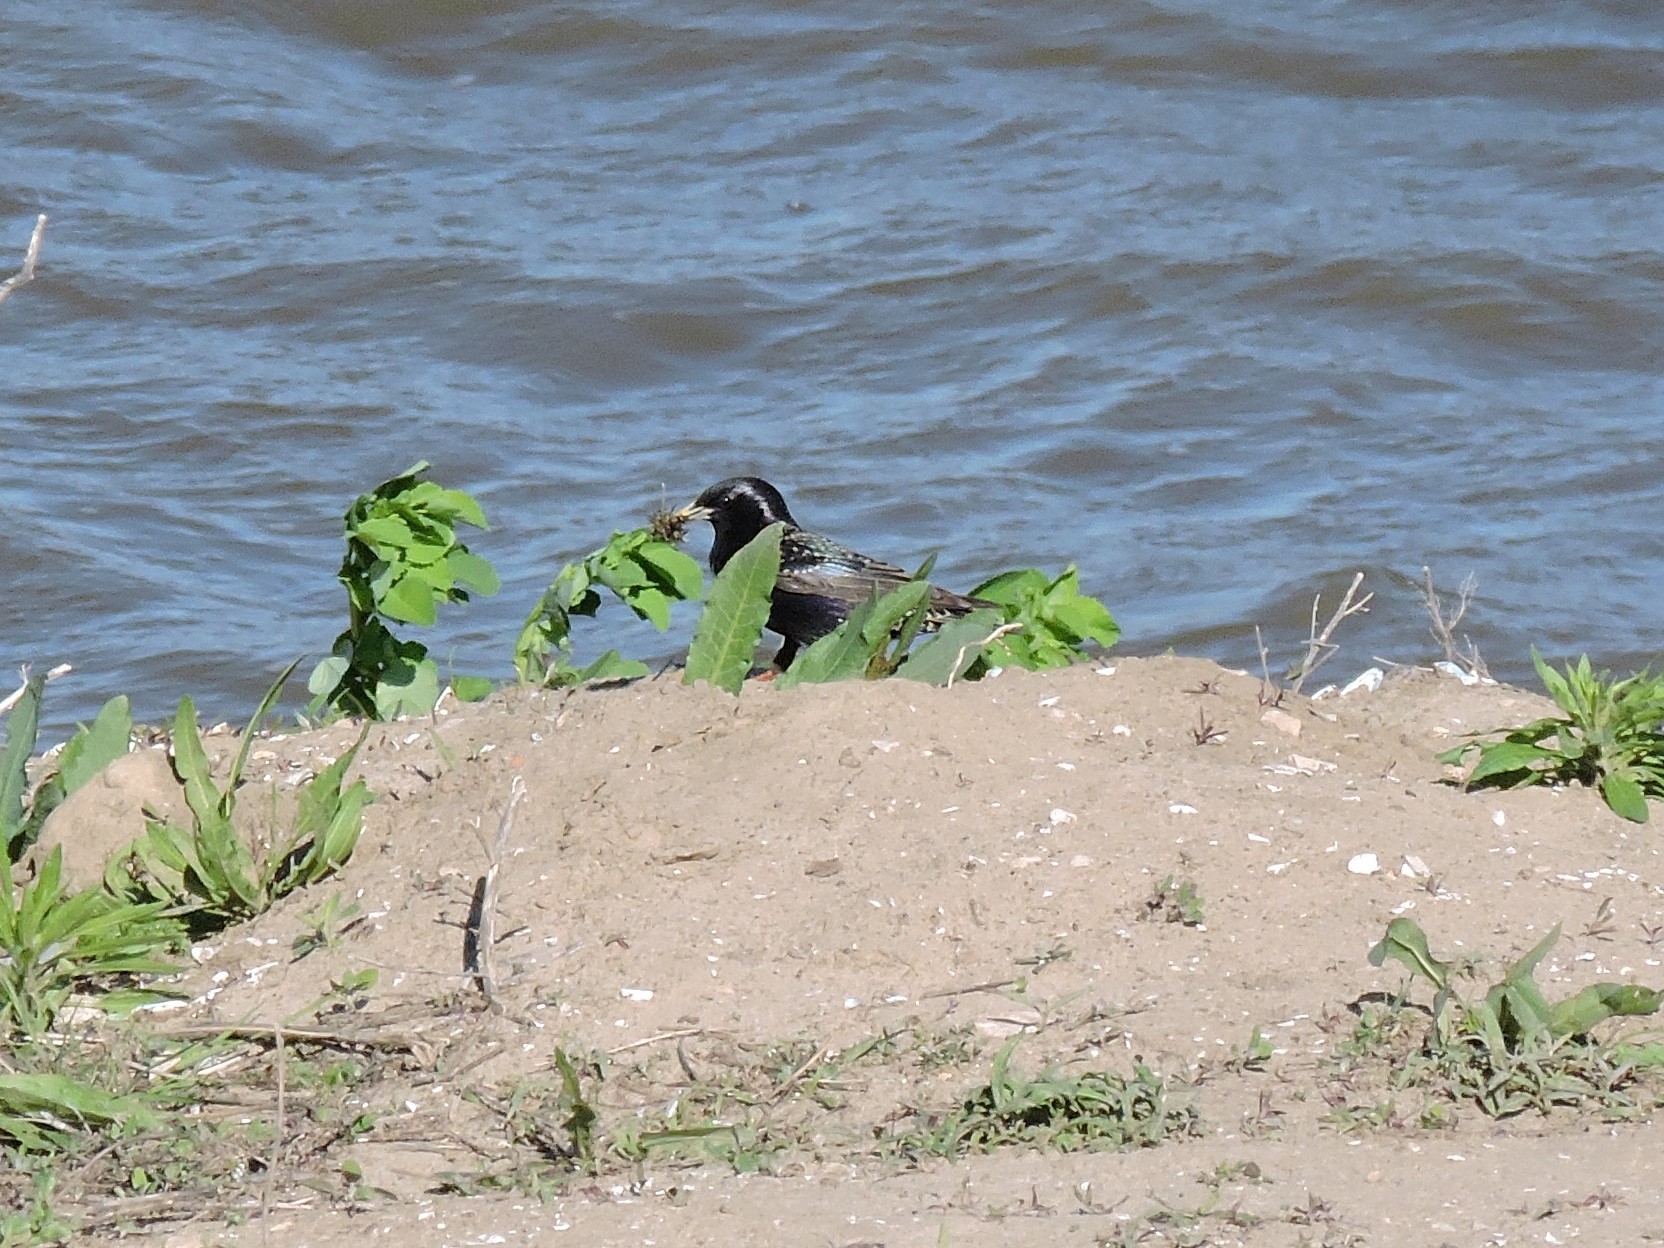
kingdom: Animalia
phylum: Chordata
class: Aves
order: Passeriformes
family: Sturnidae
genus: Sturnus
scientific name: Sturnus vulgaris
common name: Common starling
